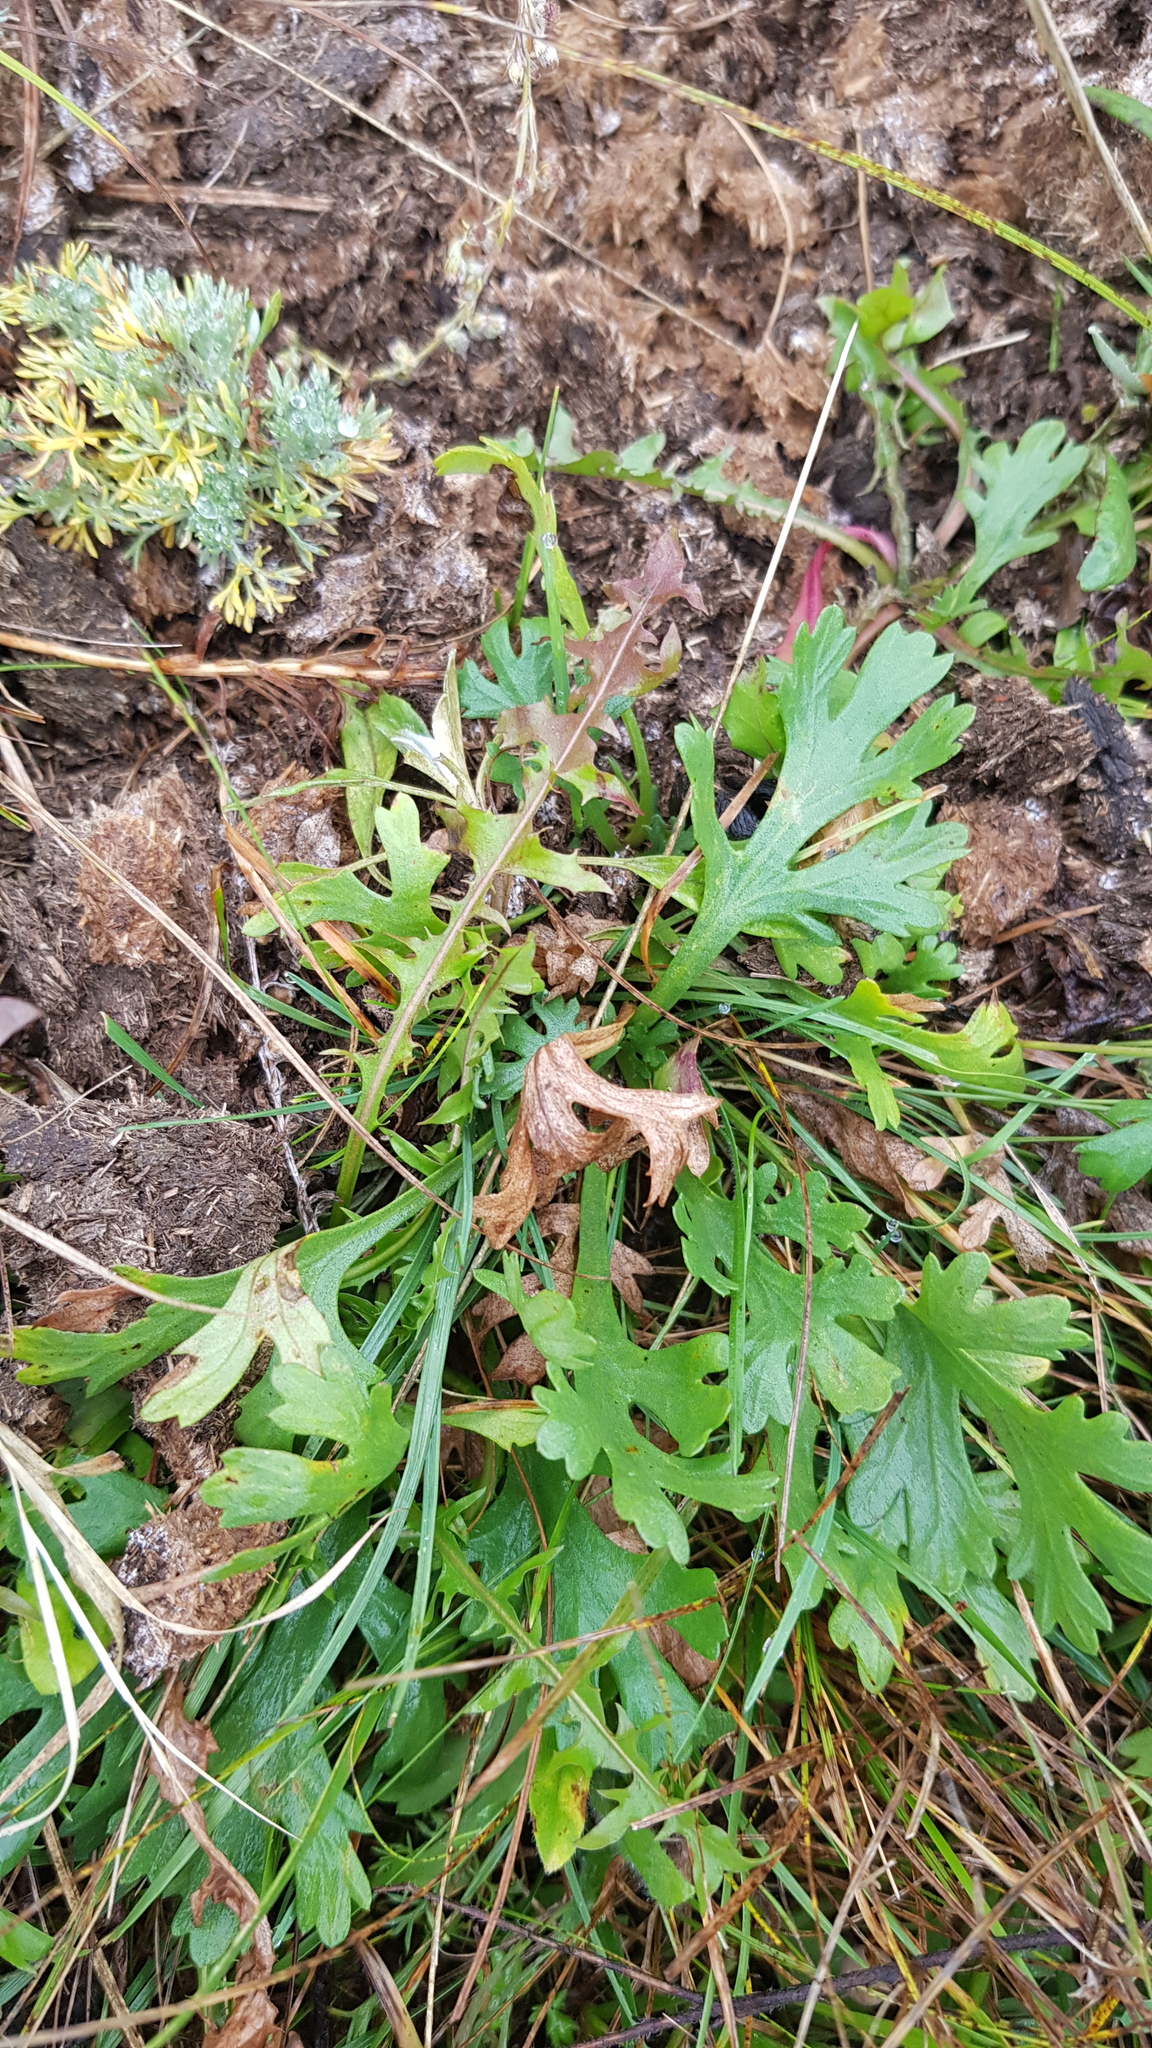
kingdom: Plantae
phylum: Tracheophyta
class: Magnoliopsida
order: Asterales
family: Asteraceae
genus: Chrysanthemum
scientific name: Chrysanthemum zawadzkii
